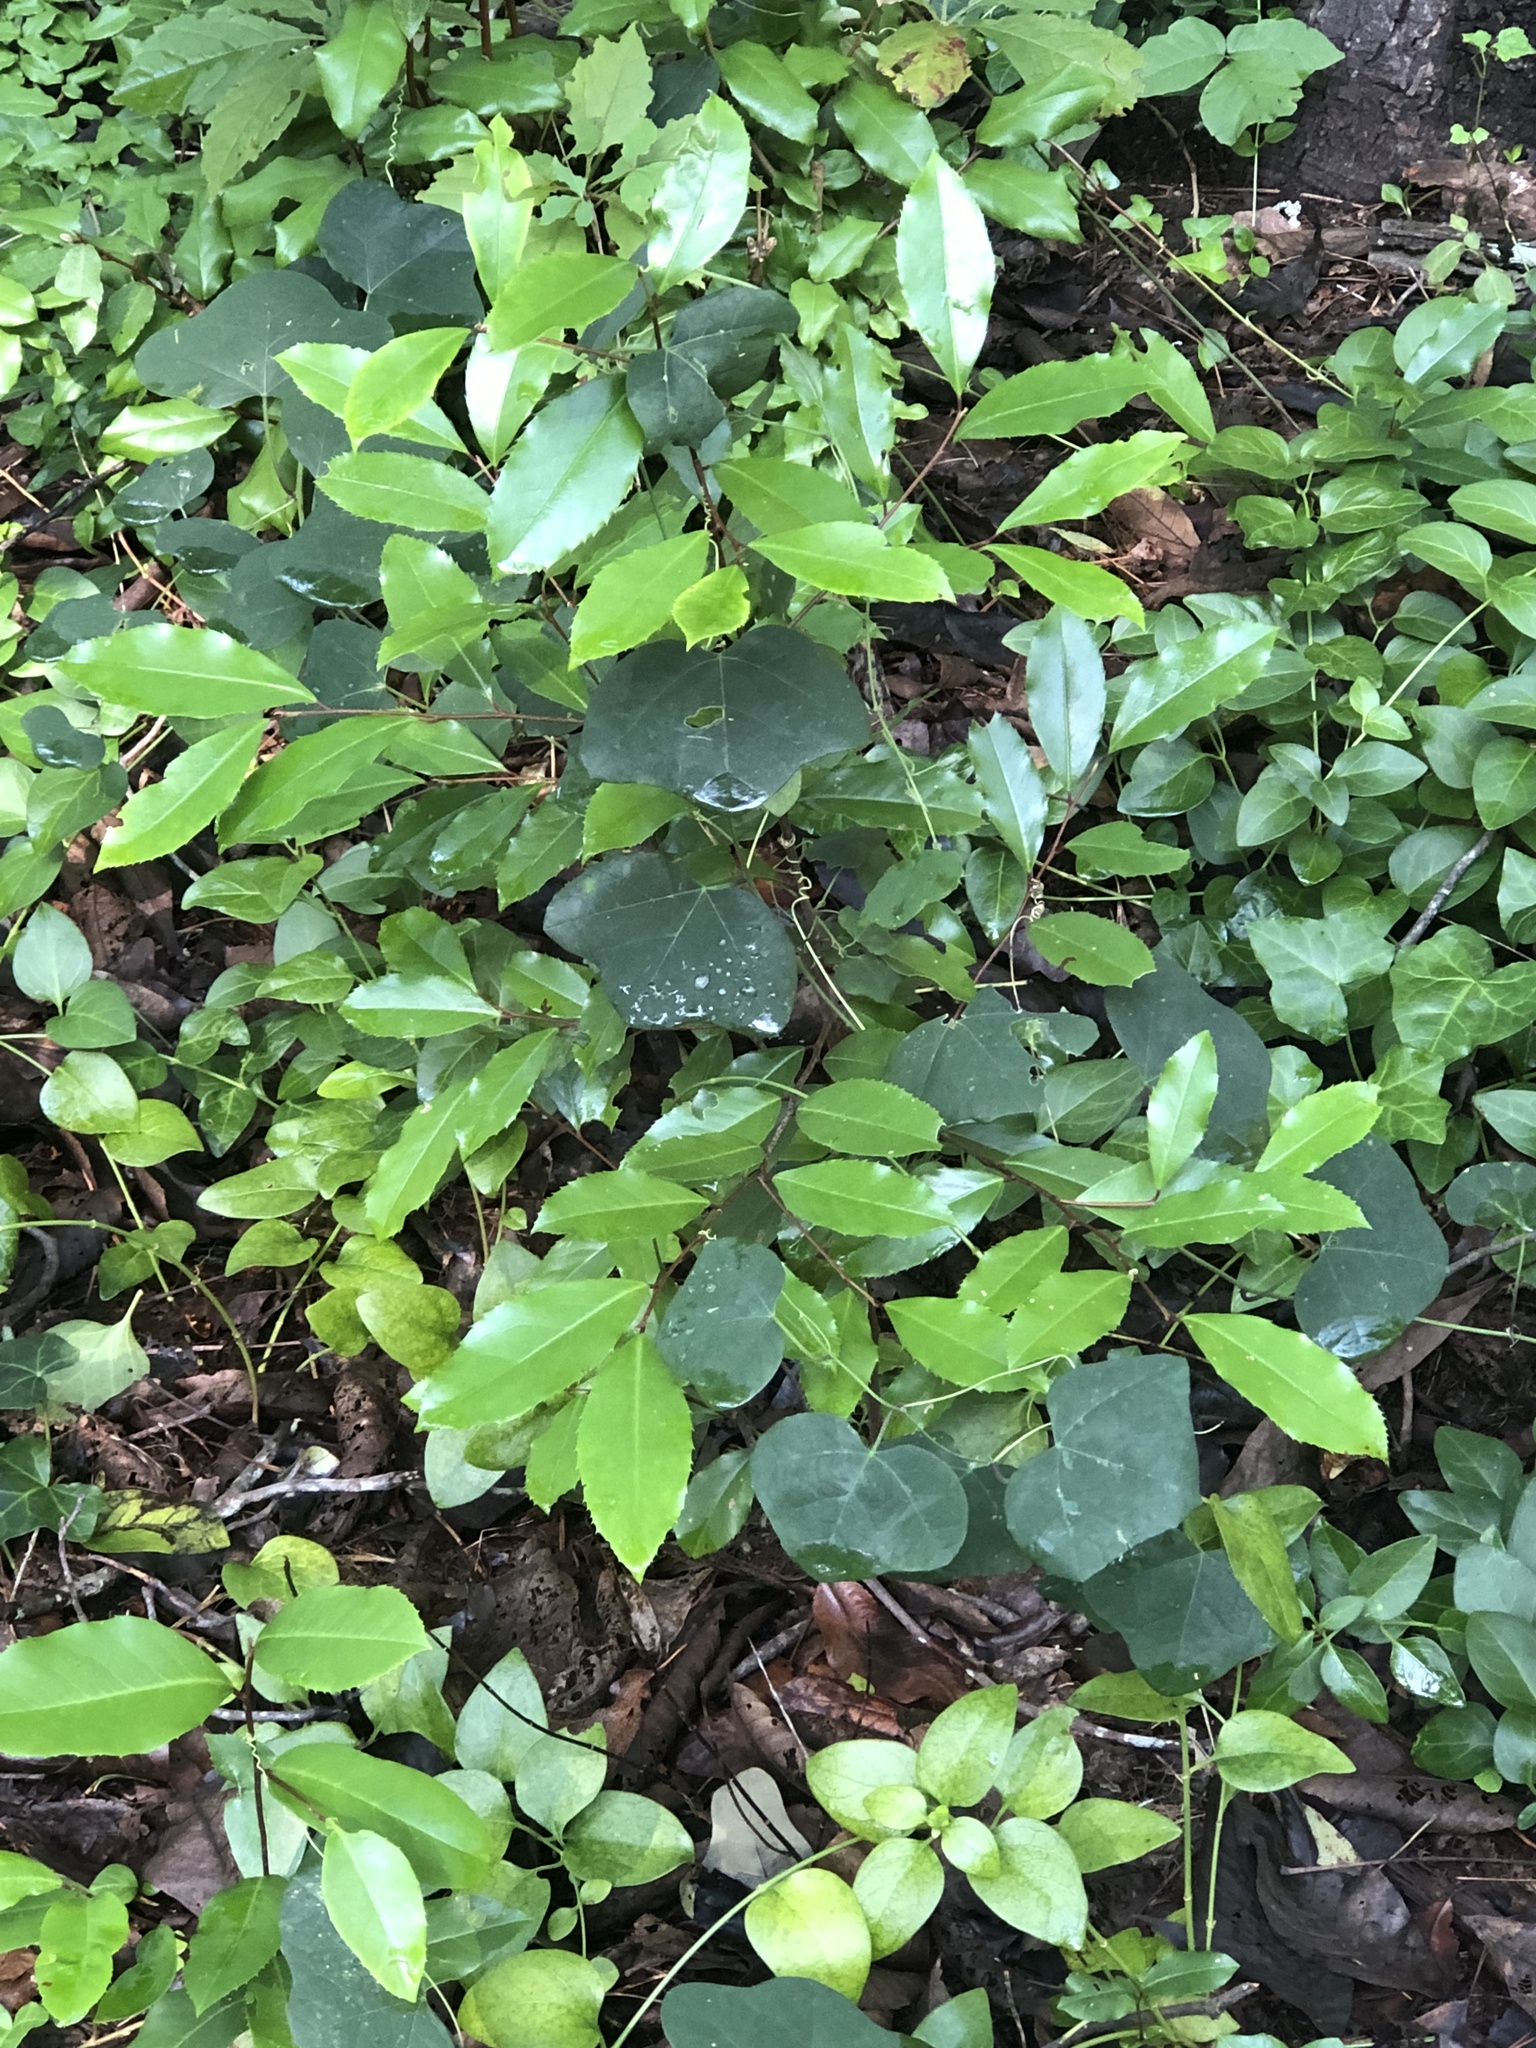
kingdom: Plantae
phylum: Tracheophyta
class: Magnoliopsida
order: Malpighiales
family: Passifloraceae
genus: Passiflora
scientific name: Passiflora lutea
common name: Yellow passionflower
